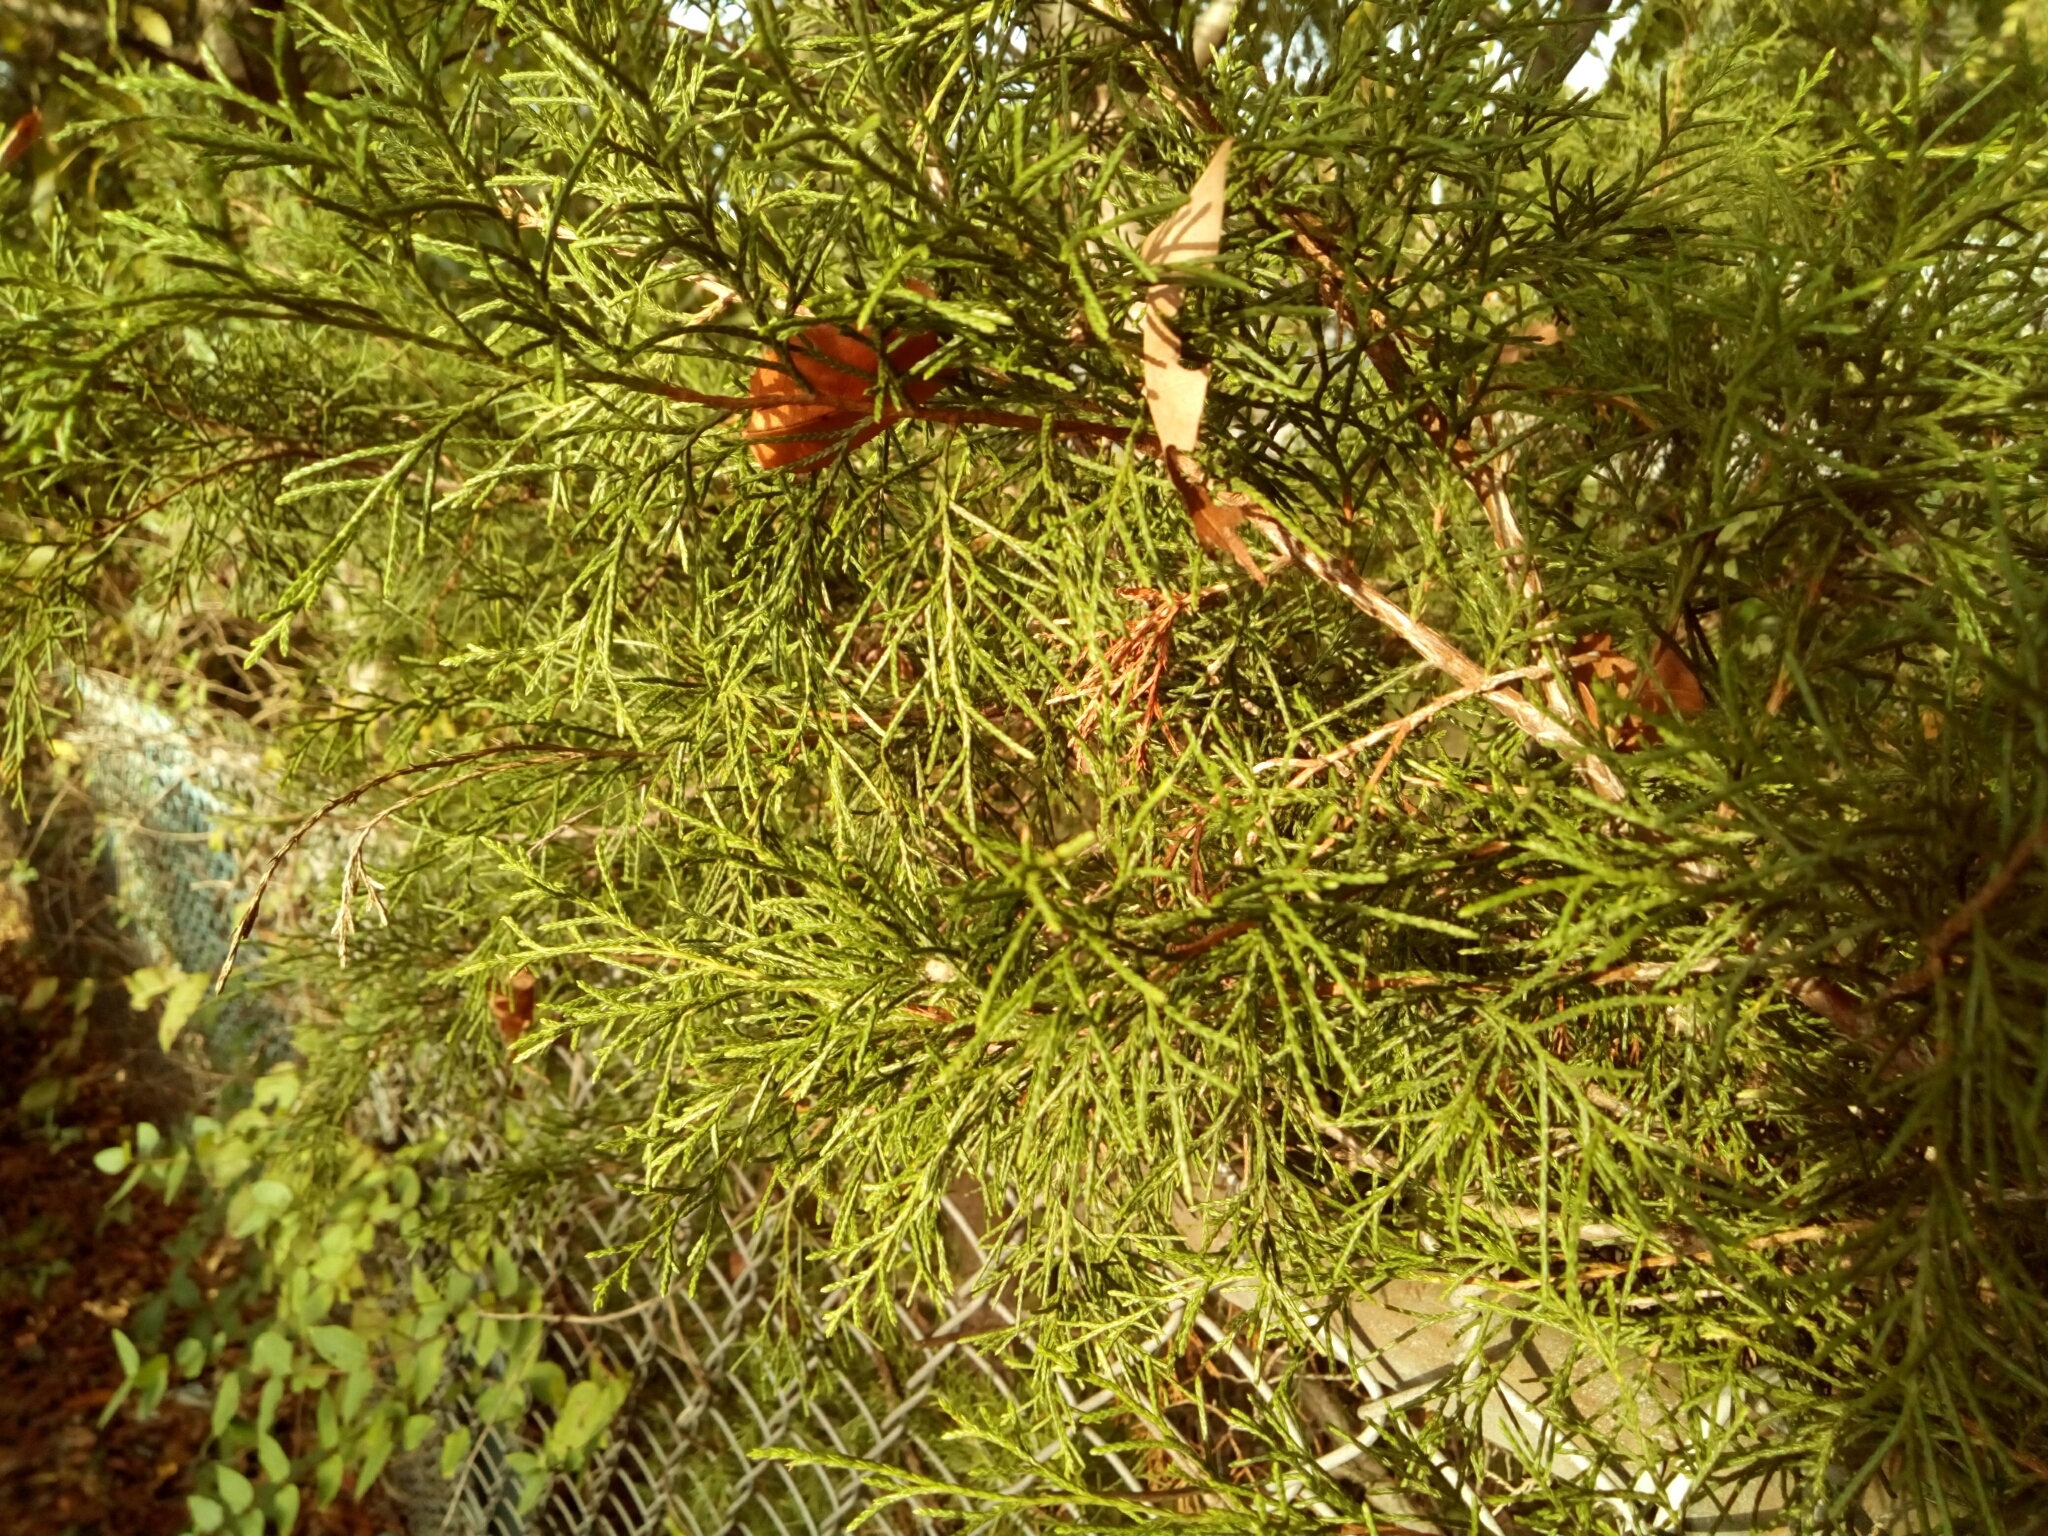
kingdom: Plantae
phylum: Tracheophyta
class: Pinopsida
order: Pinales
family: Cupressaceae
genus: Juniperus
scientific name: Juniperus virginiana
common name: Red juniper
